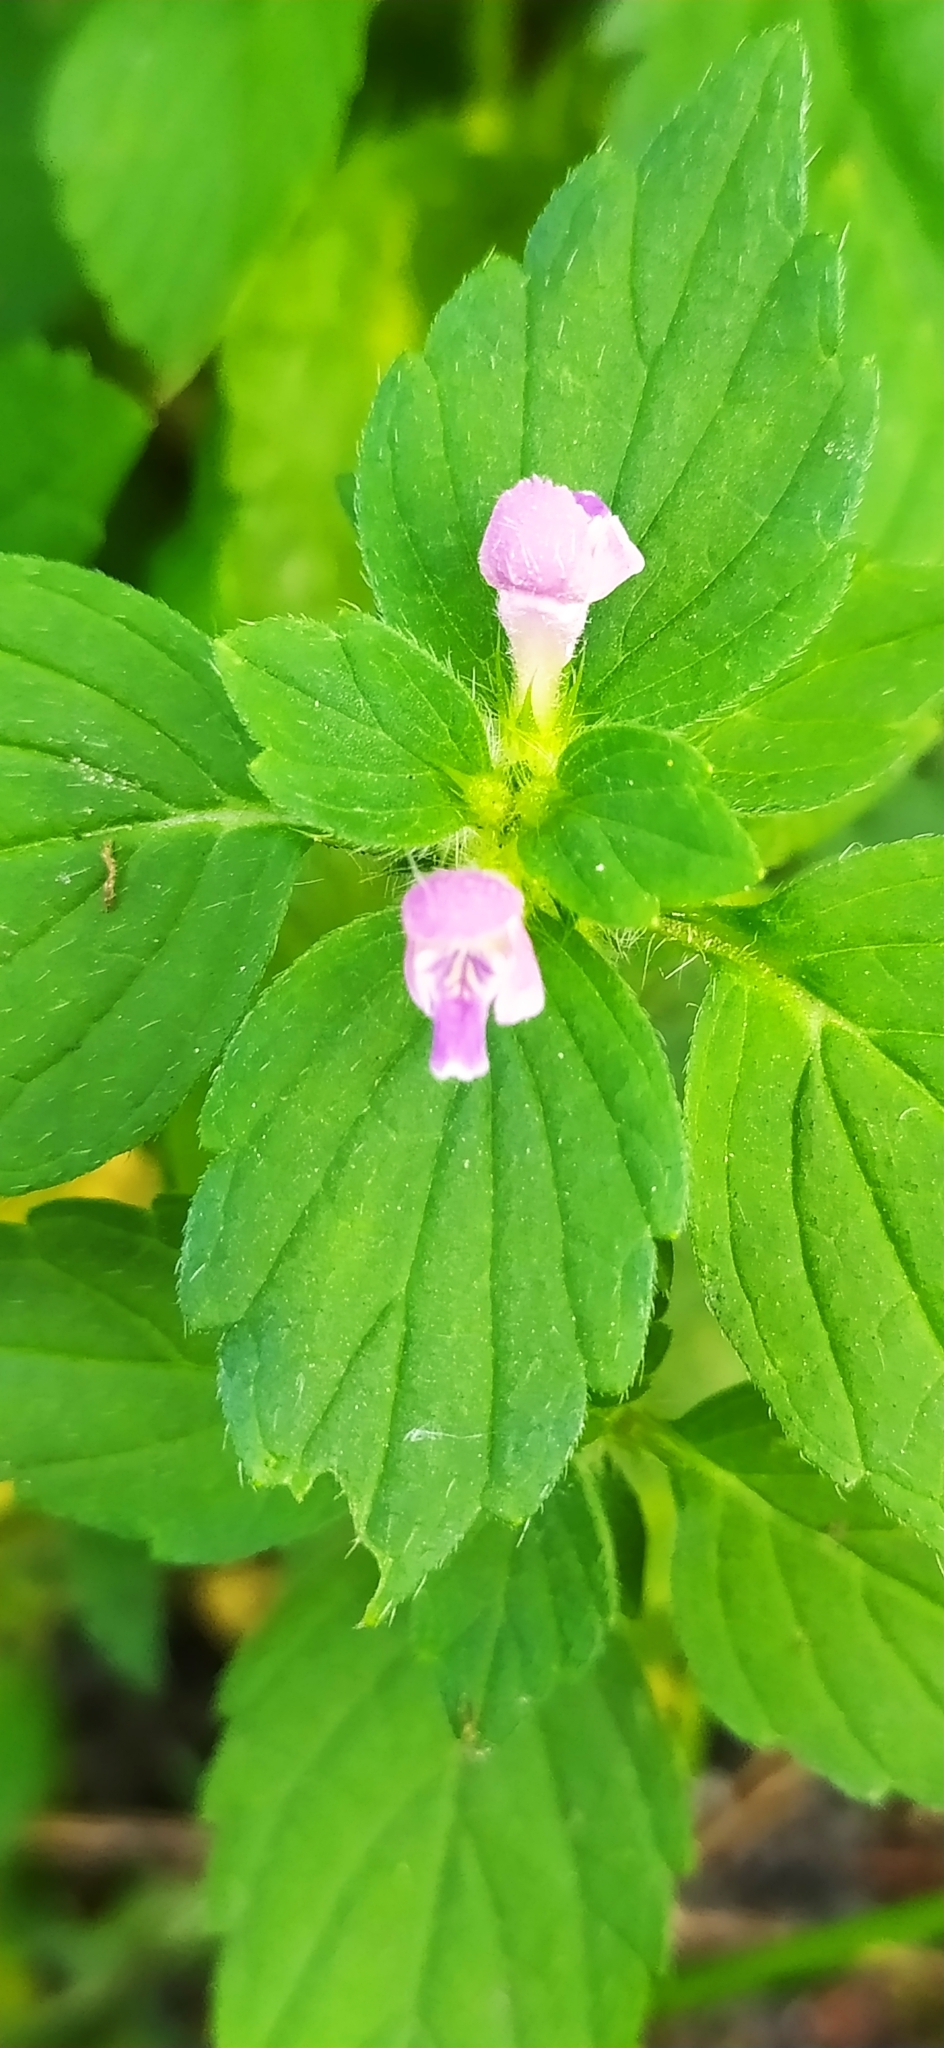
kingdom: Plantae
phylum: Tracheophyta
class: Magnoliopsida
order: Lamiales
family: Lamiaceae
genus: Galeopsis
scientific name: Galeopsis bifida
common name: Bifid hemp-nettle
